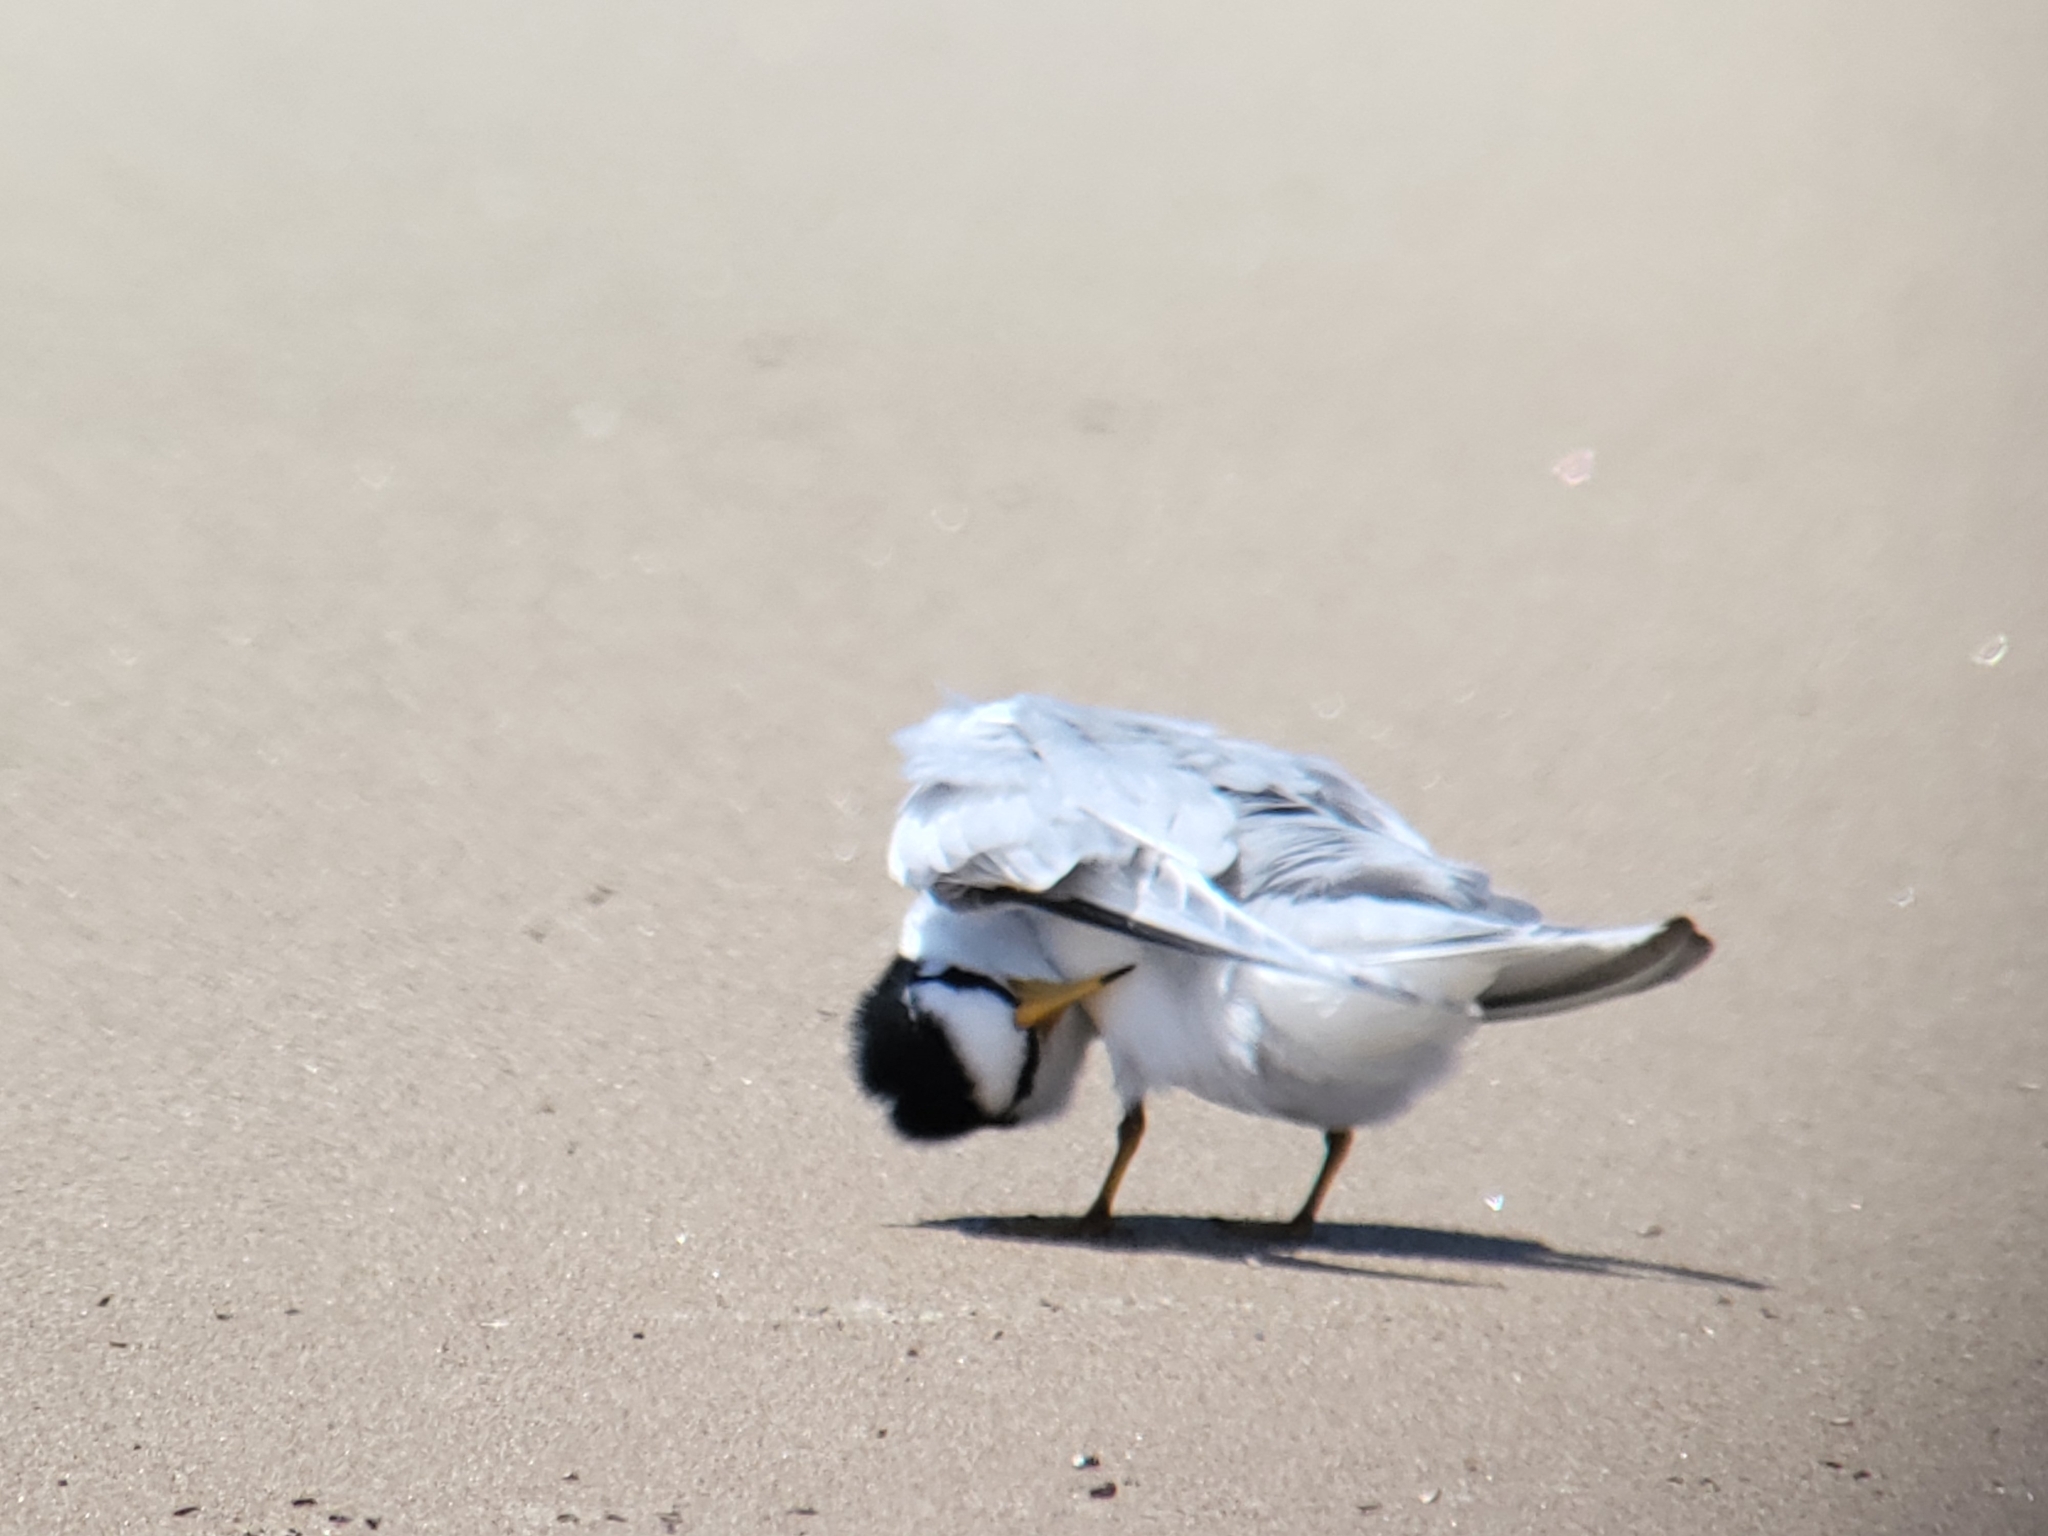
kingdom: Animalia
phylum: Chordata
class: Aves
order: Charadriiformes
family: Laridae
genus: Sternula
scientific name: Sternula antillarum
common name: Least tern
